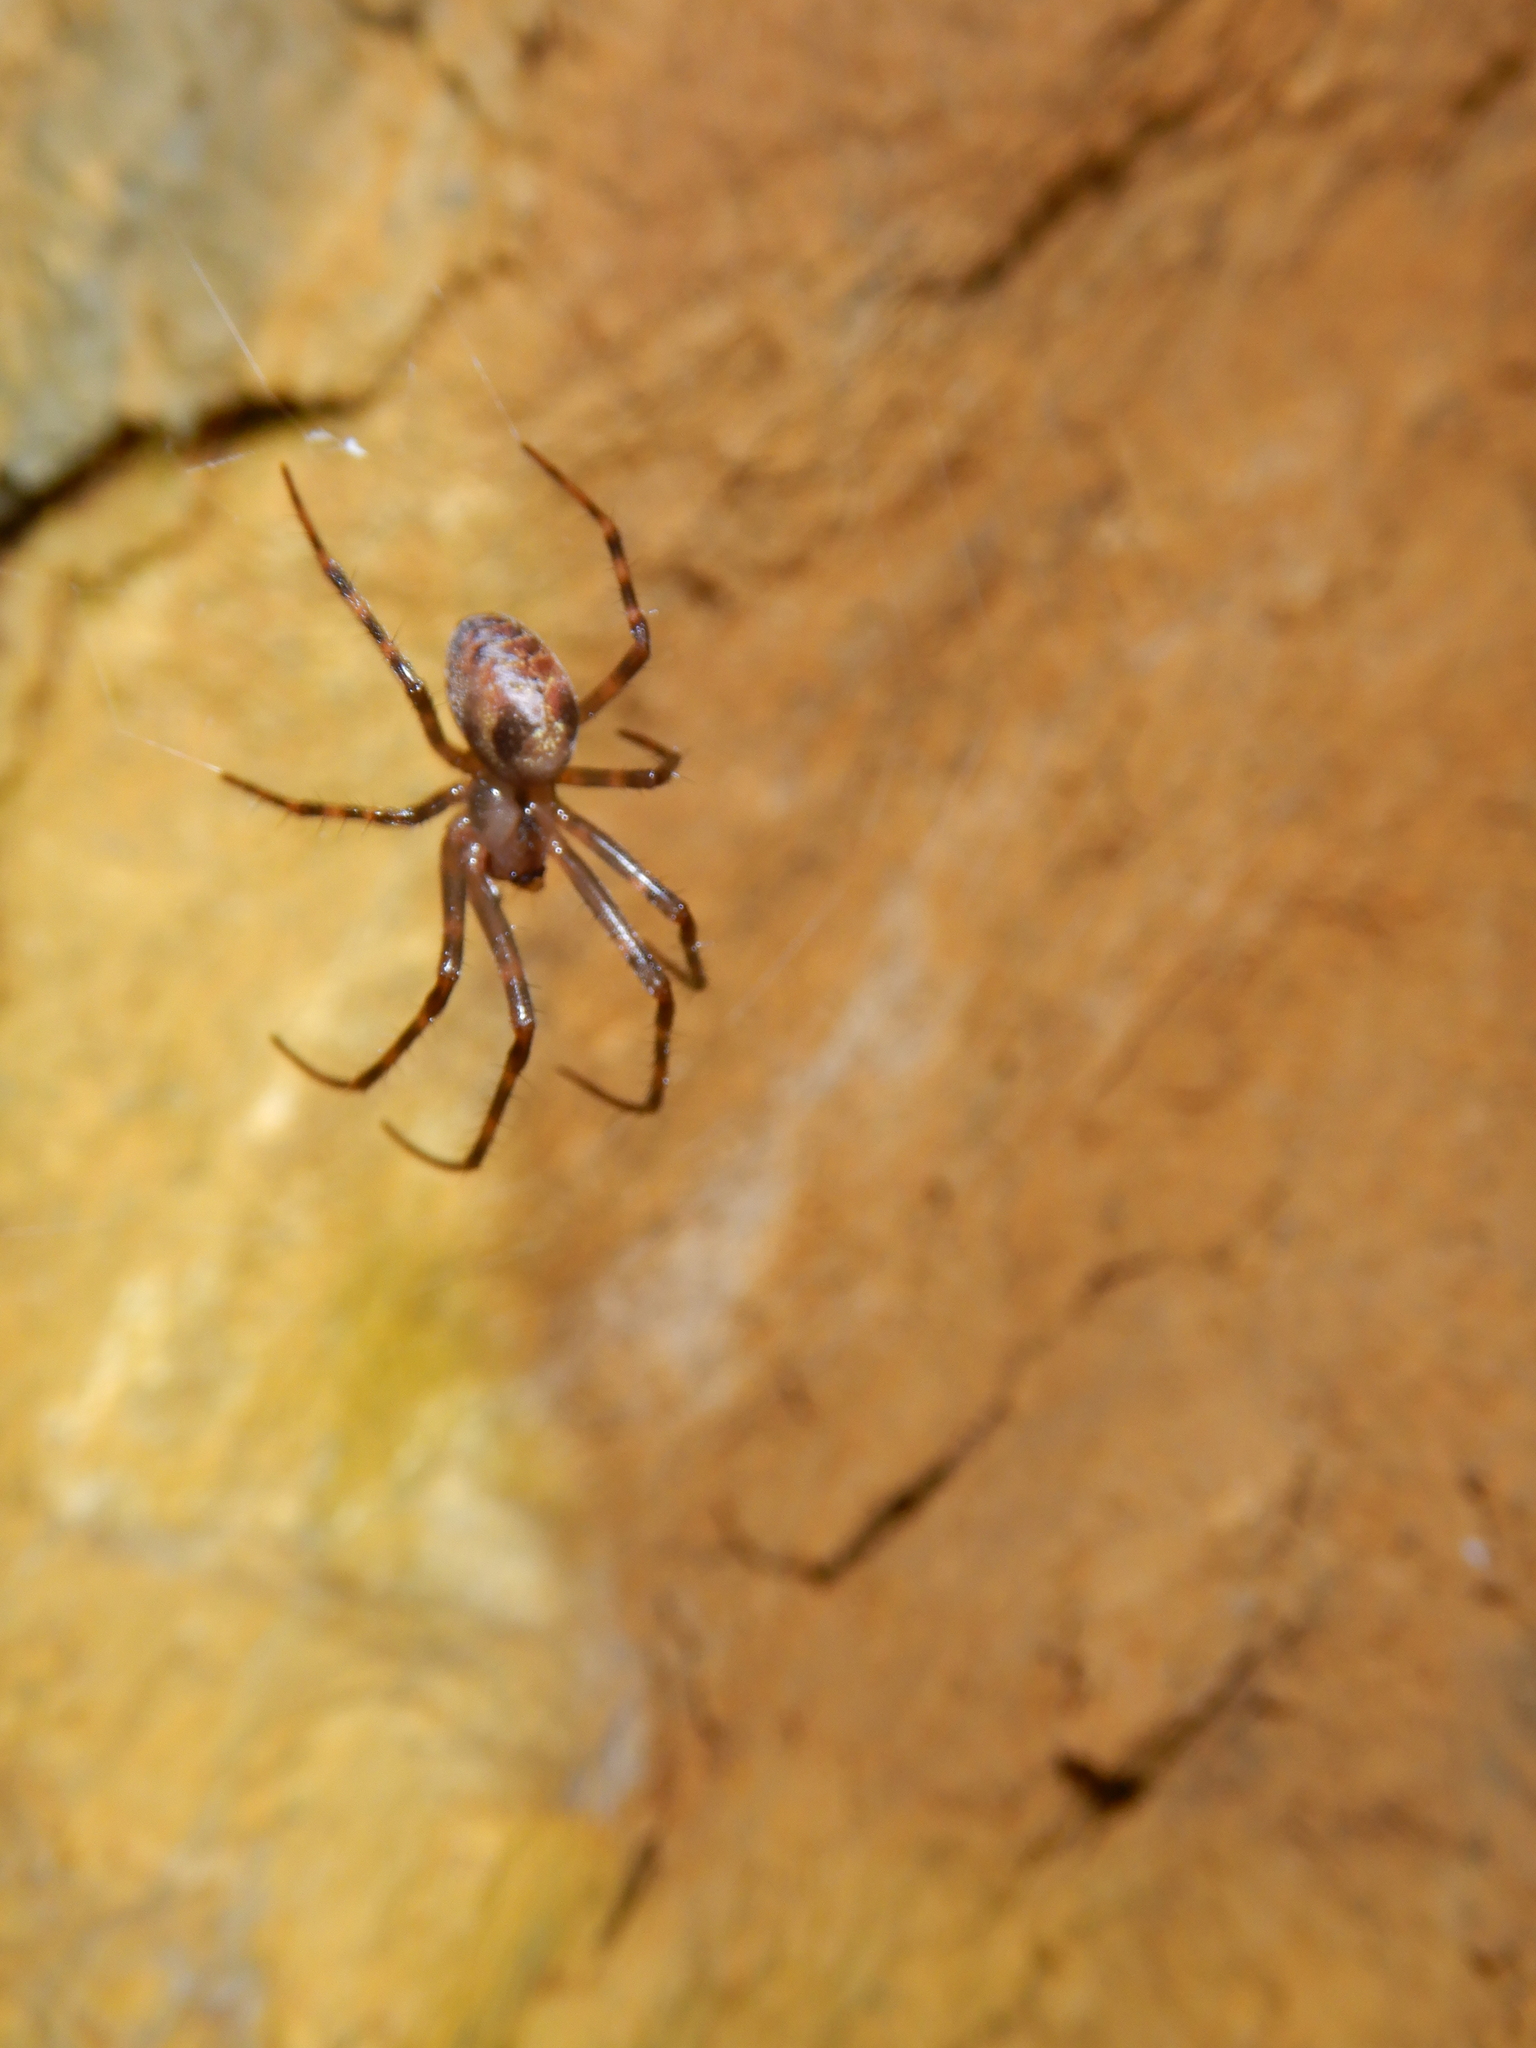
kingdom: Animalia
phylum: Arthropoda
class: Arachnida
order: Araneae
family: Tetragnathidae
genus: Meta
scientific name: Meta menardi
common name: Cave spider
